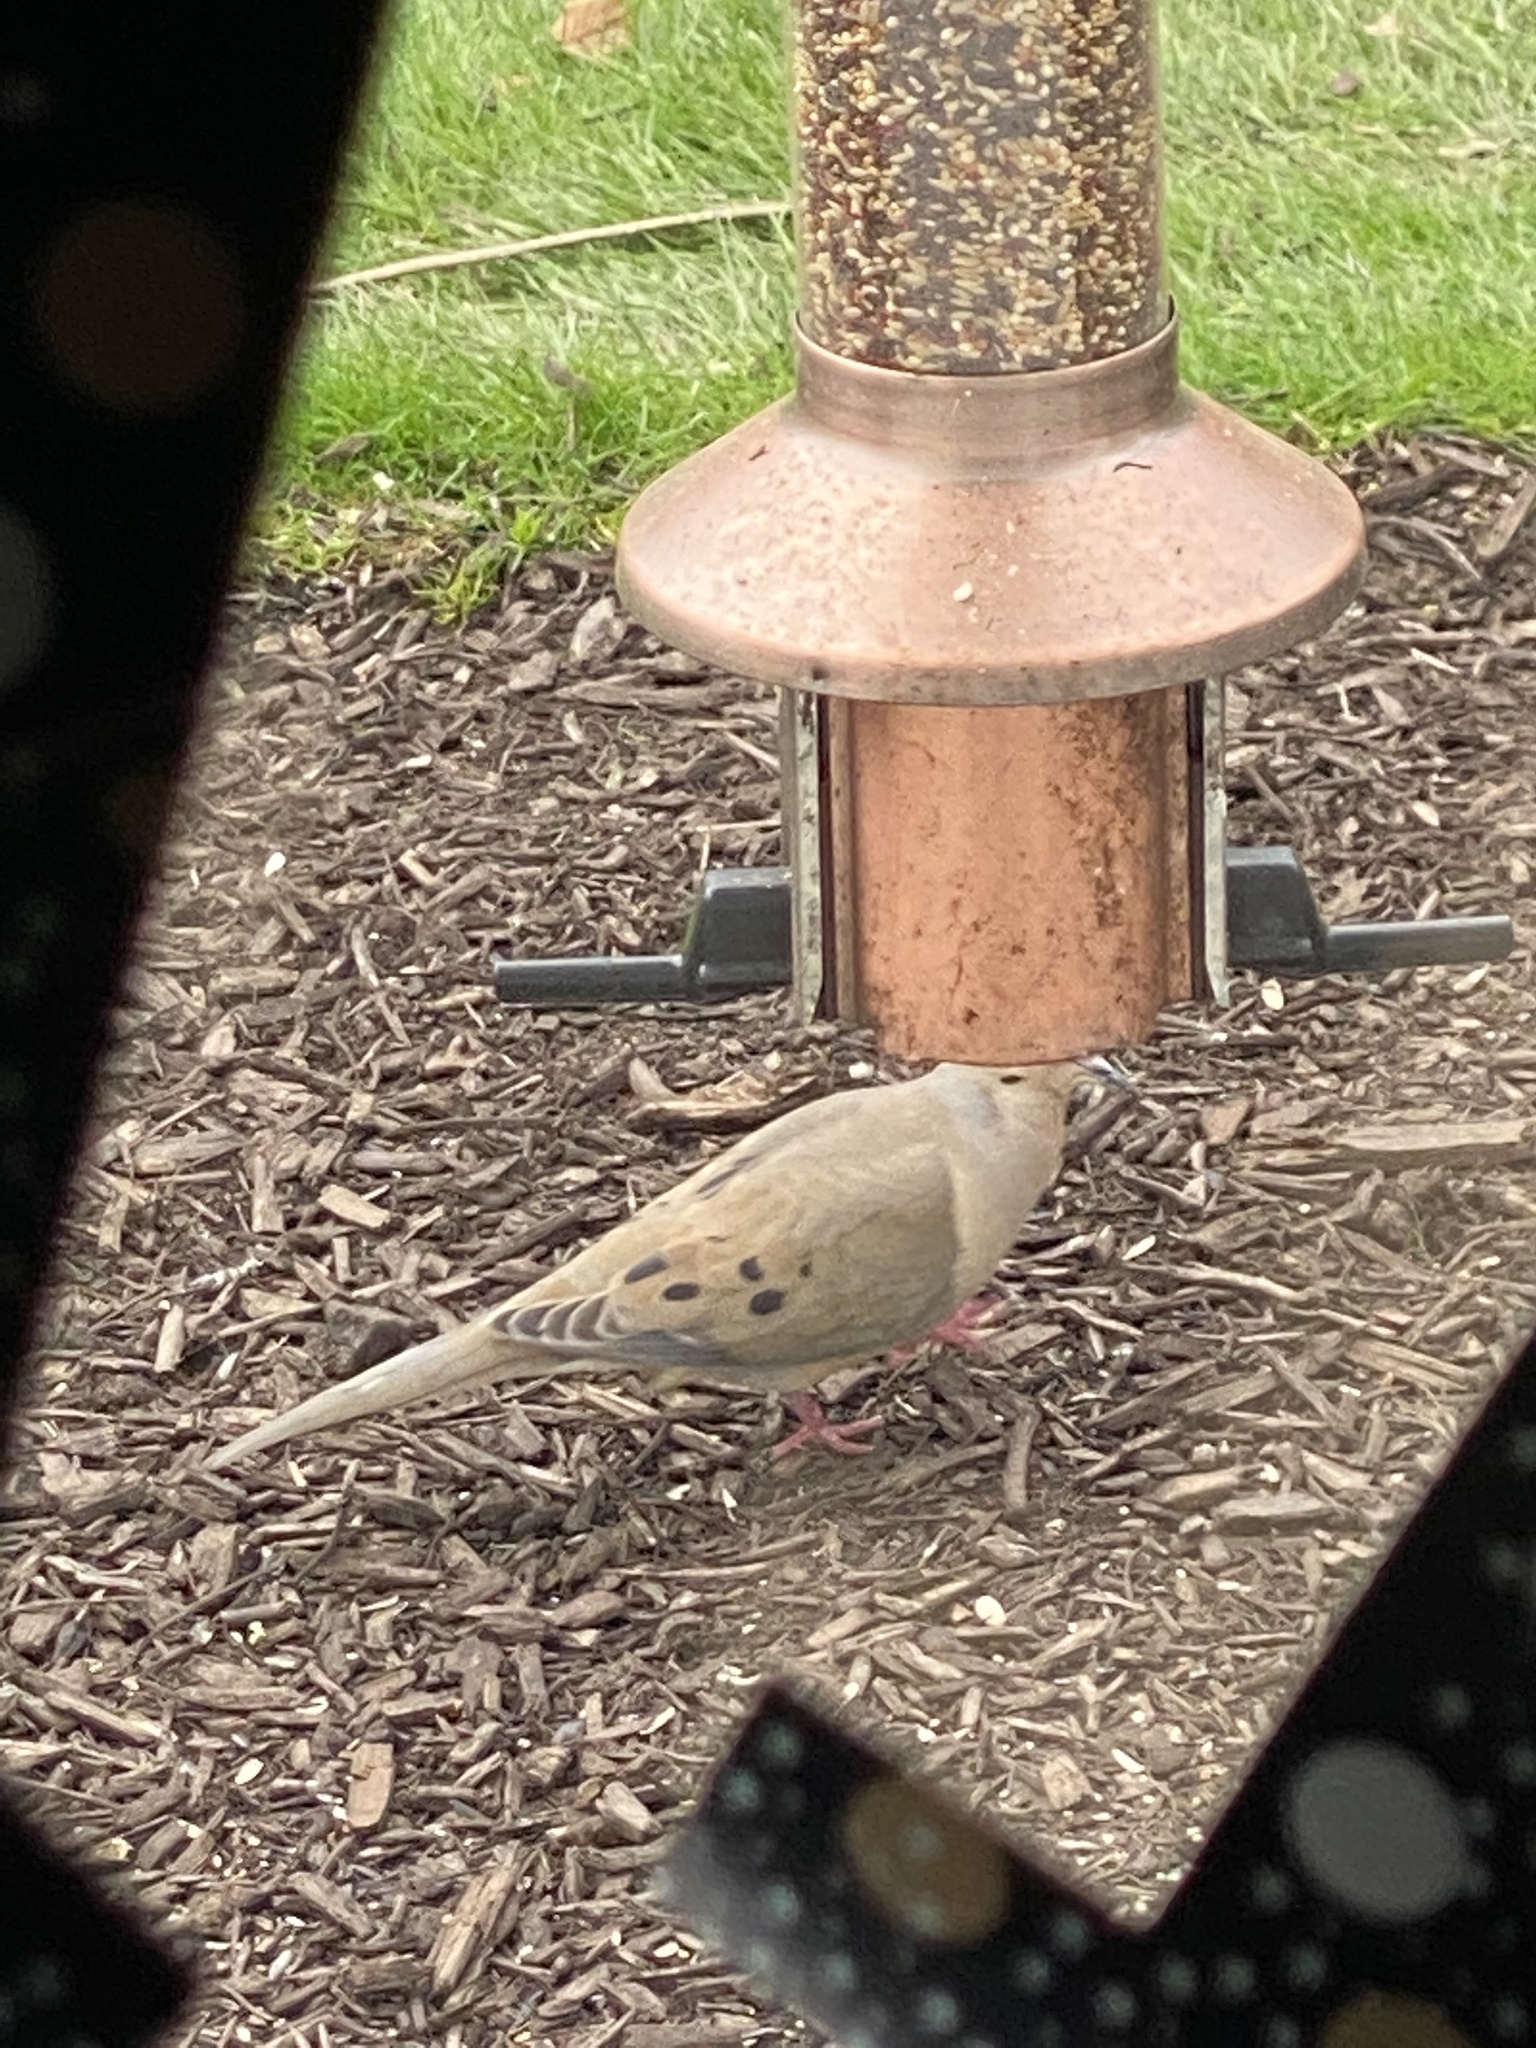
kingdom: Animalia
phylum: Chordata
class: Aves
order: Columbiformes
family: Columbidae
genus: Zenaida
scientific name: Zenaida macroura
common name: Mourning dove
